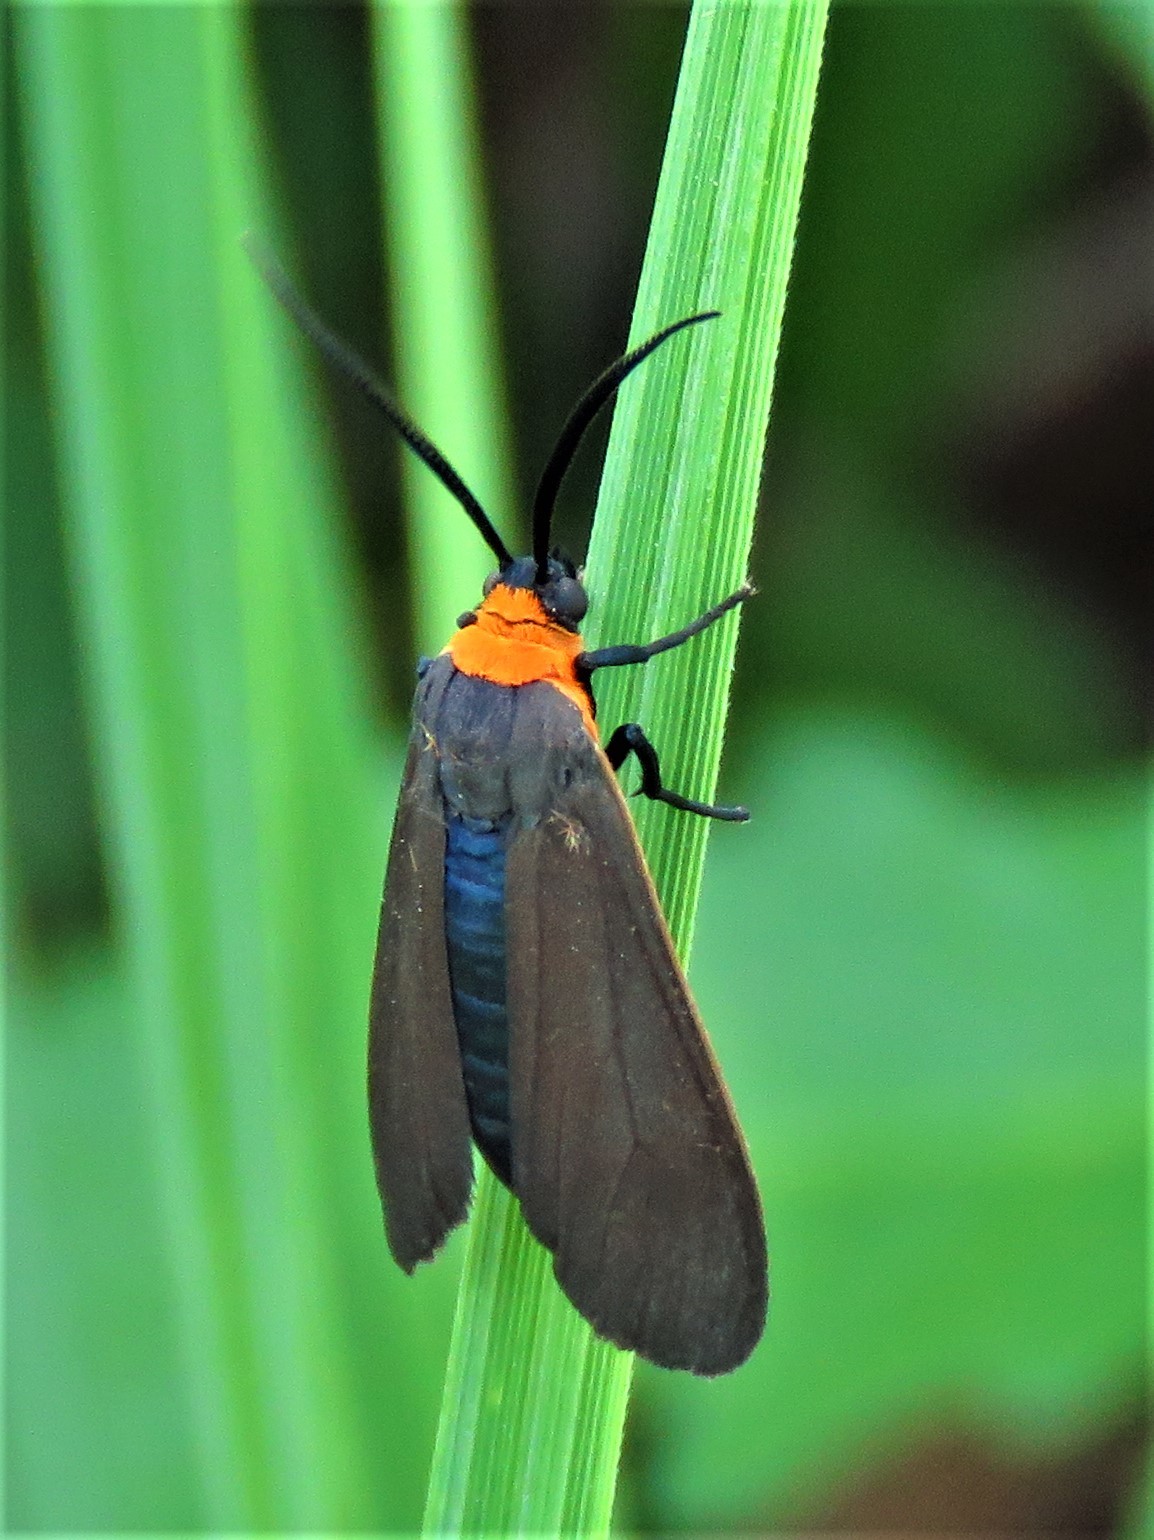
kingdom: Animalia
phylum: Arthropoda
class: Insecta
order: Lepidoptera
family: Erebidae
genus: Cisseps
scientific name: Cisseps fulvicollis
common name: Yellow-collared scape moth
